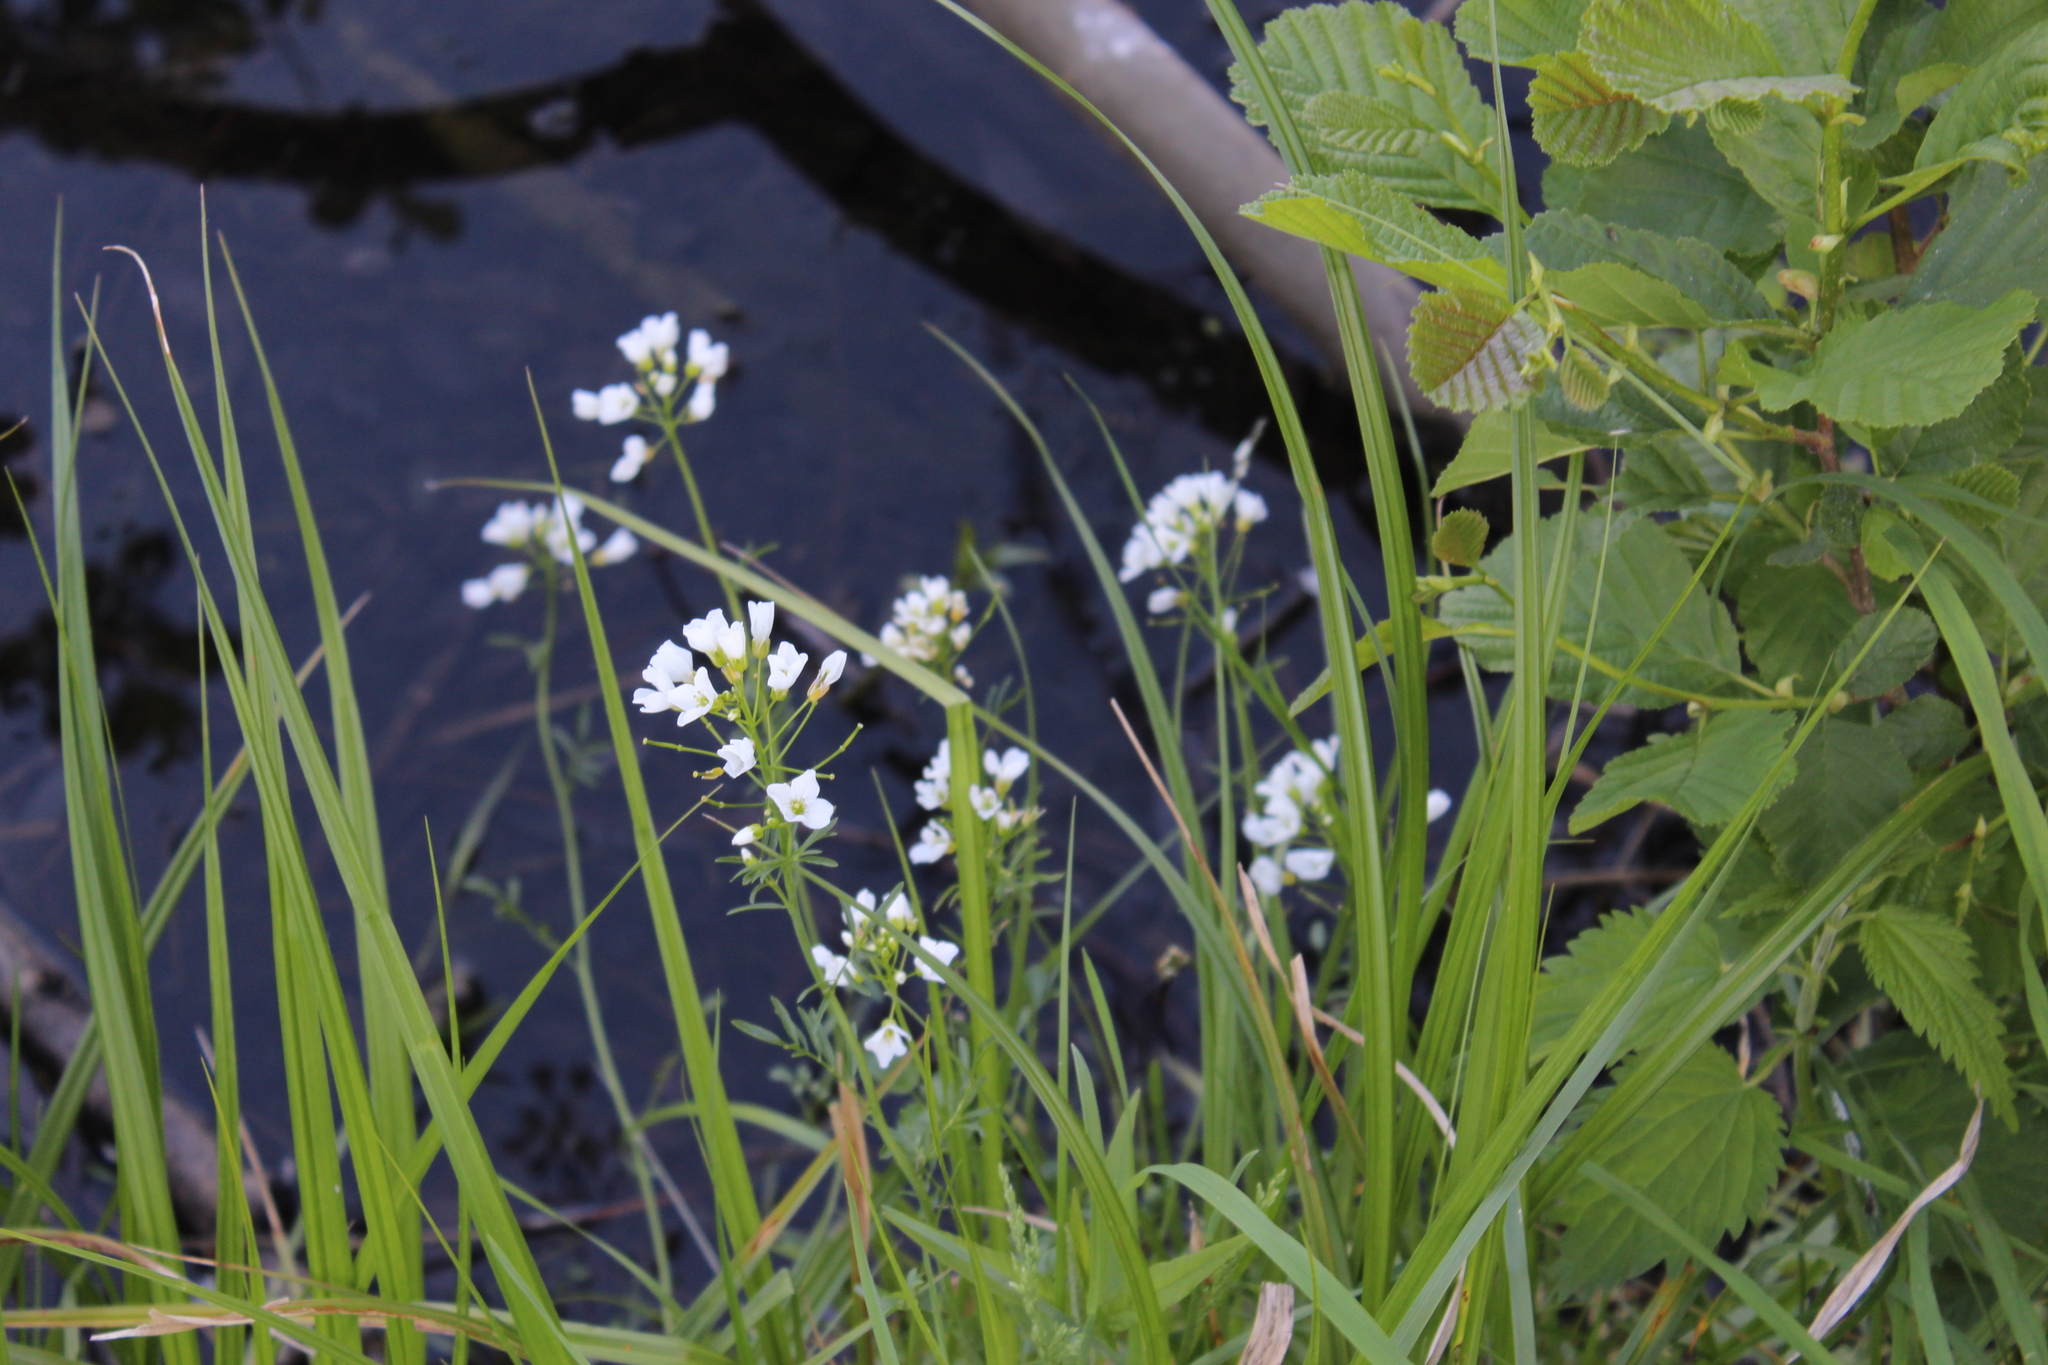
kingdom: Plantae
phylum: Tracheophyta
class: Magnoliopsida
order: Brassicales
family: Brassicaceae
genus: Cardamine
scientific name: Cardamine dentata
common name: Toothed bittercress
